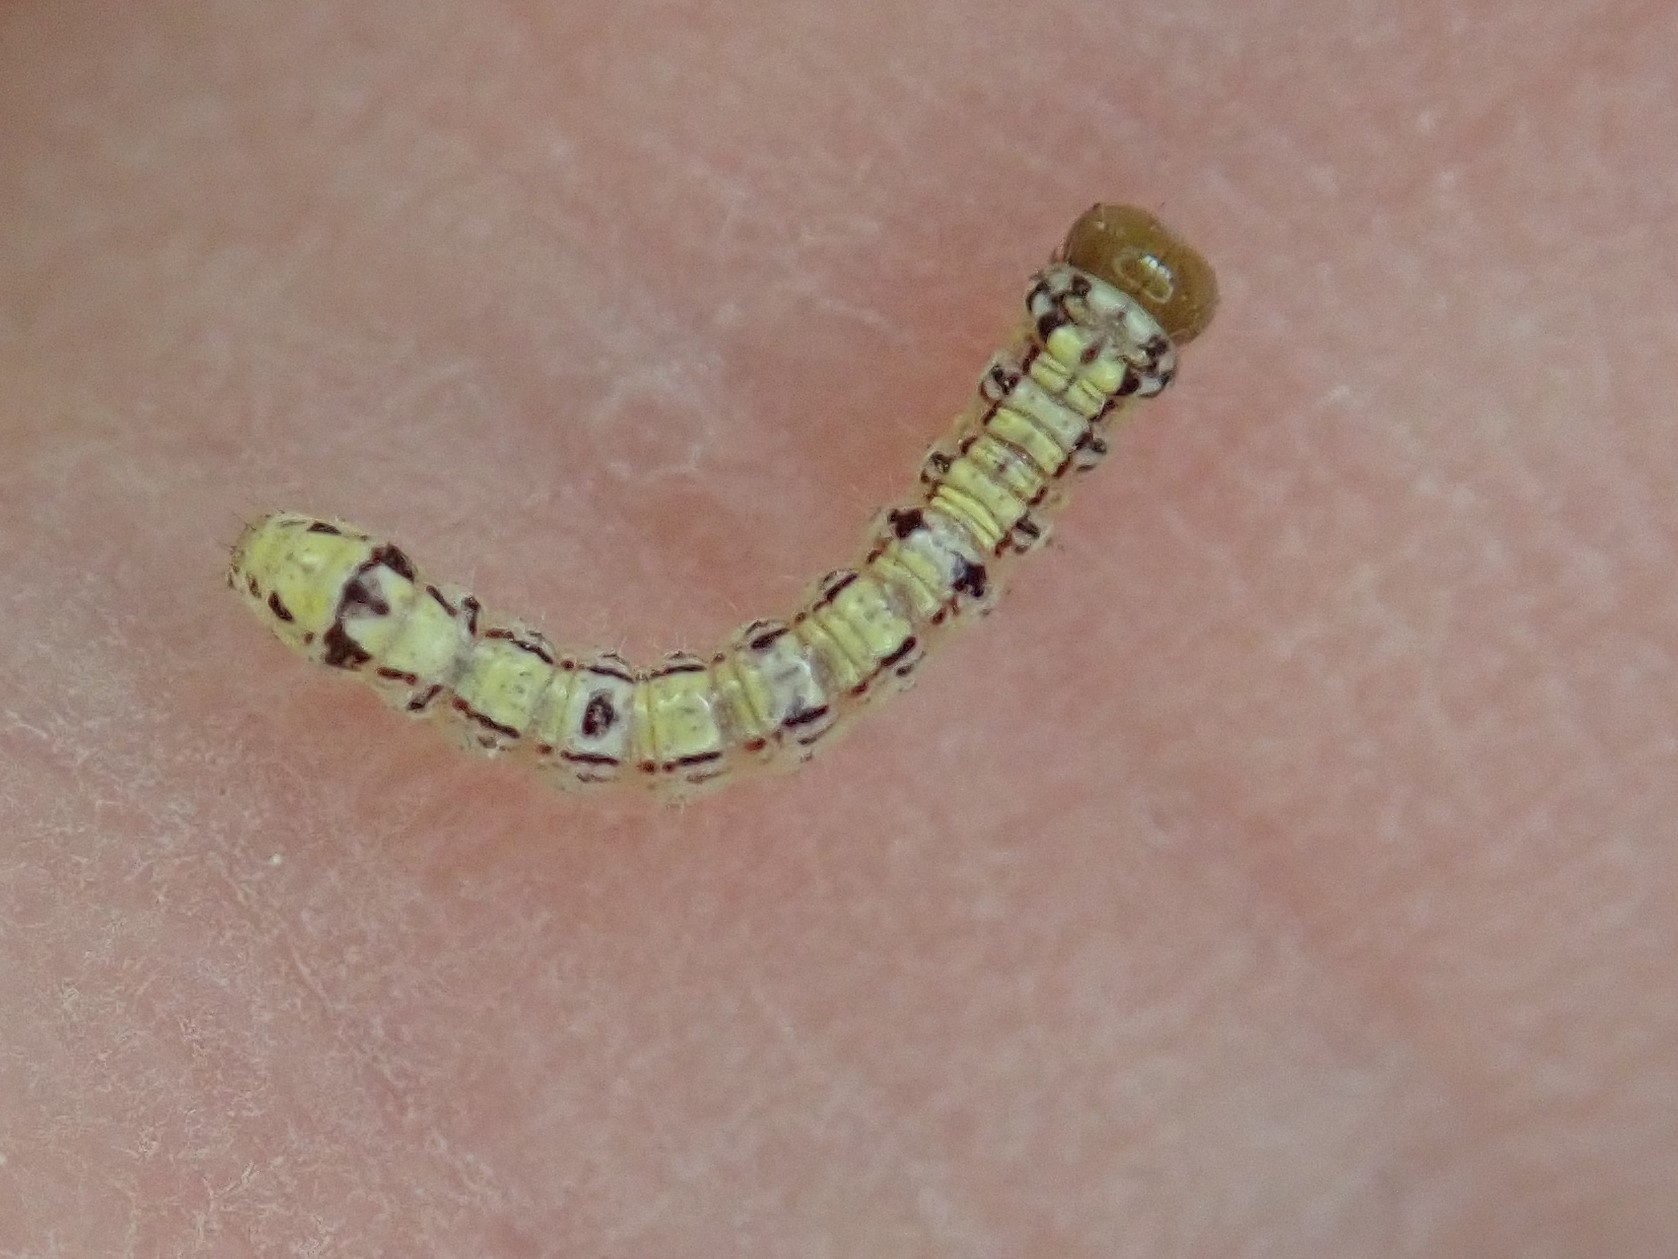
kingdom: Animalia
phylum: Arthropoda
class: Insecta
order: Lepidoptera
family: Notodontidae
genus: Phryganidia
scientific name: Phryganidia californica
